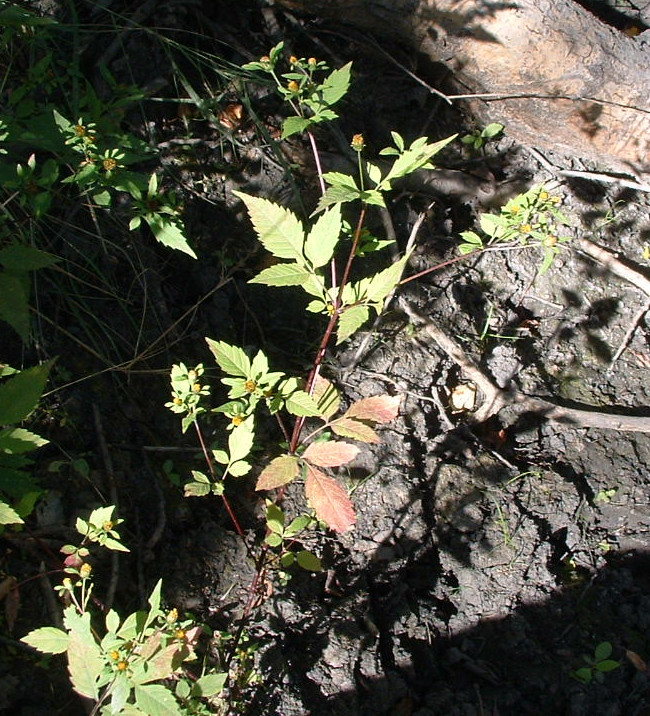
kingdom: Plantae
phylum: Tracheophyta
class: Magnoliopsida
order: Asterales
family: Asteraceae
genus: Bidens
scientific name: Bidens frondosa
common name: Beggarticks
